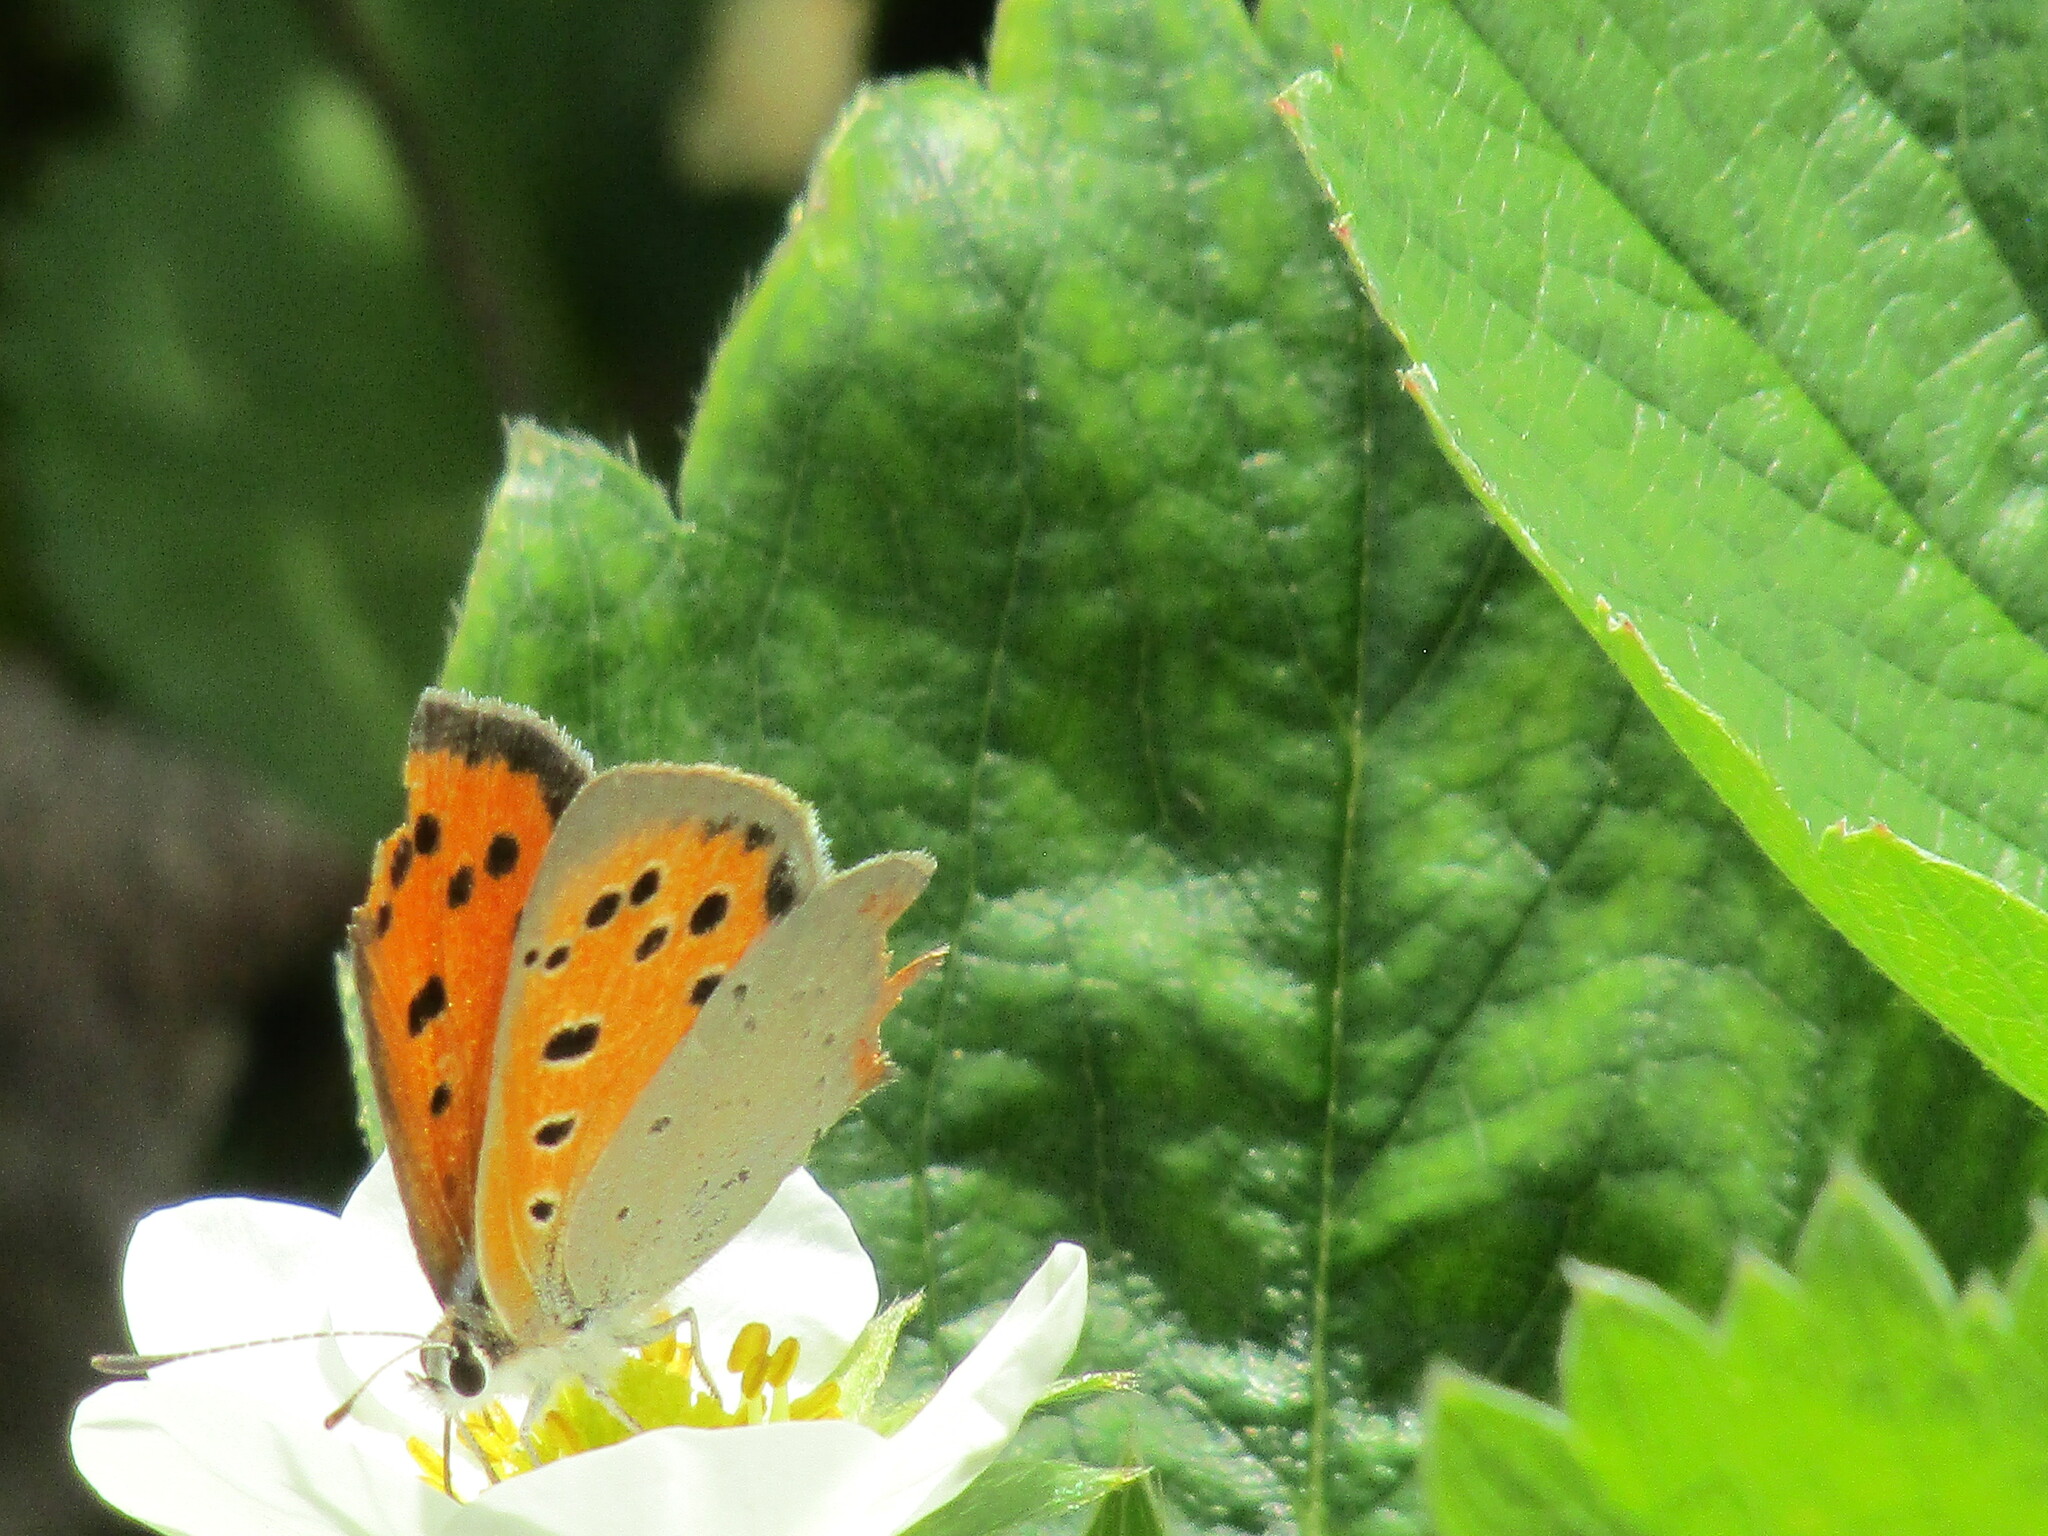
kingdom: Animalia
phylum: Arthropoda
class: Insecta
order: Lepidoptera
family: Lycaenidae
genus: Lycaena
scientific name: Lycaena phlaeas
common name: Small copper
